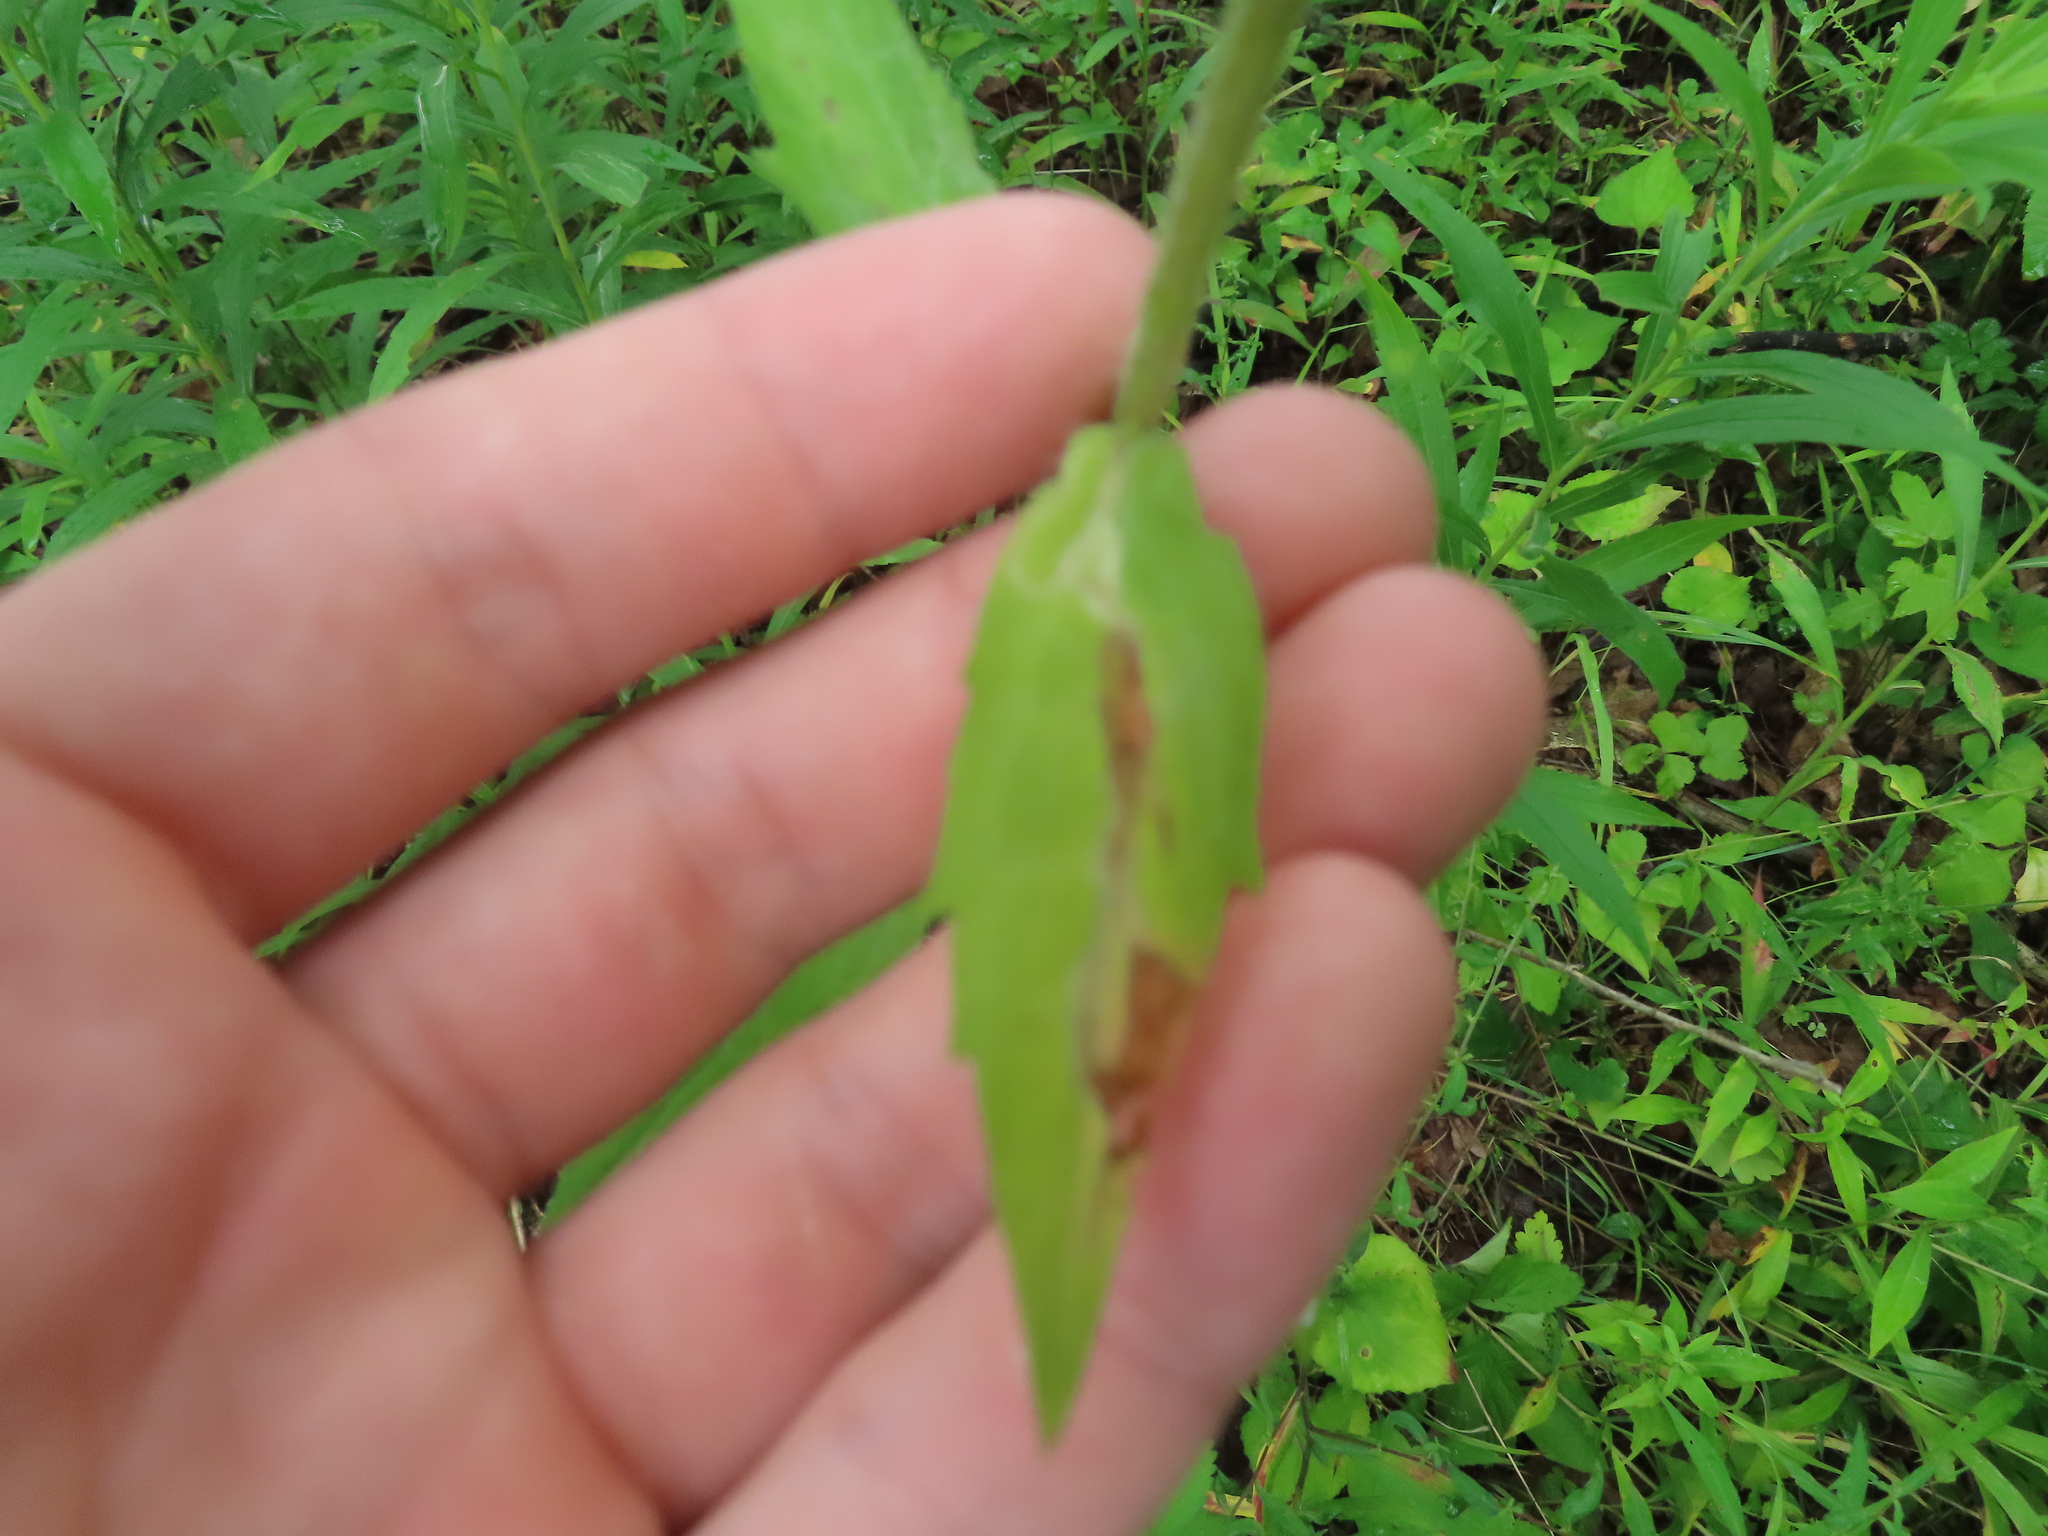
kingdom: Plantae
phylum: Tracheophyta
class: Magnoliopsida
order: Asterales
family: Asteraceae
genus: Erigeron
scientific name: Erigeron strigosus
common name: Common eastern fleabane
